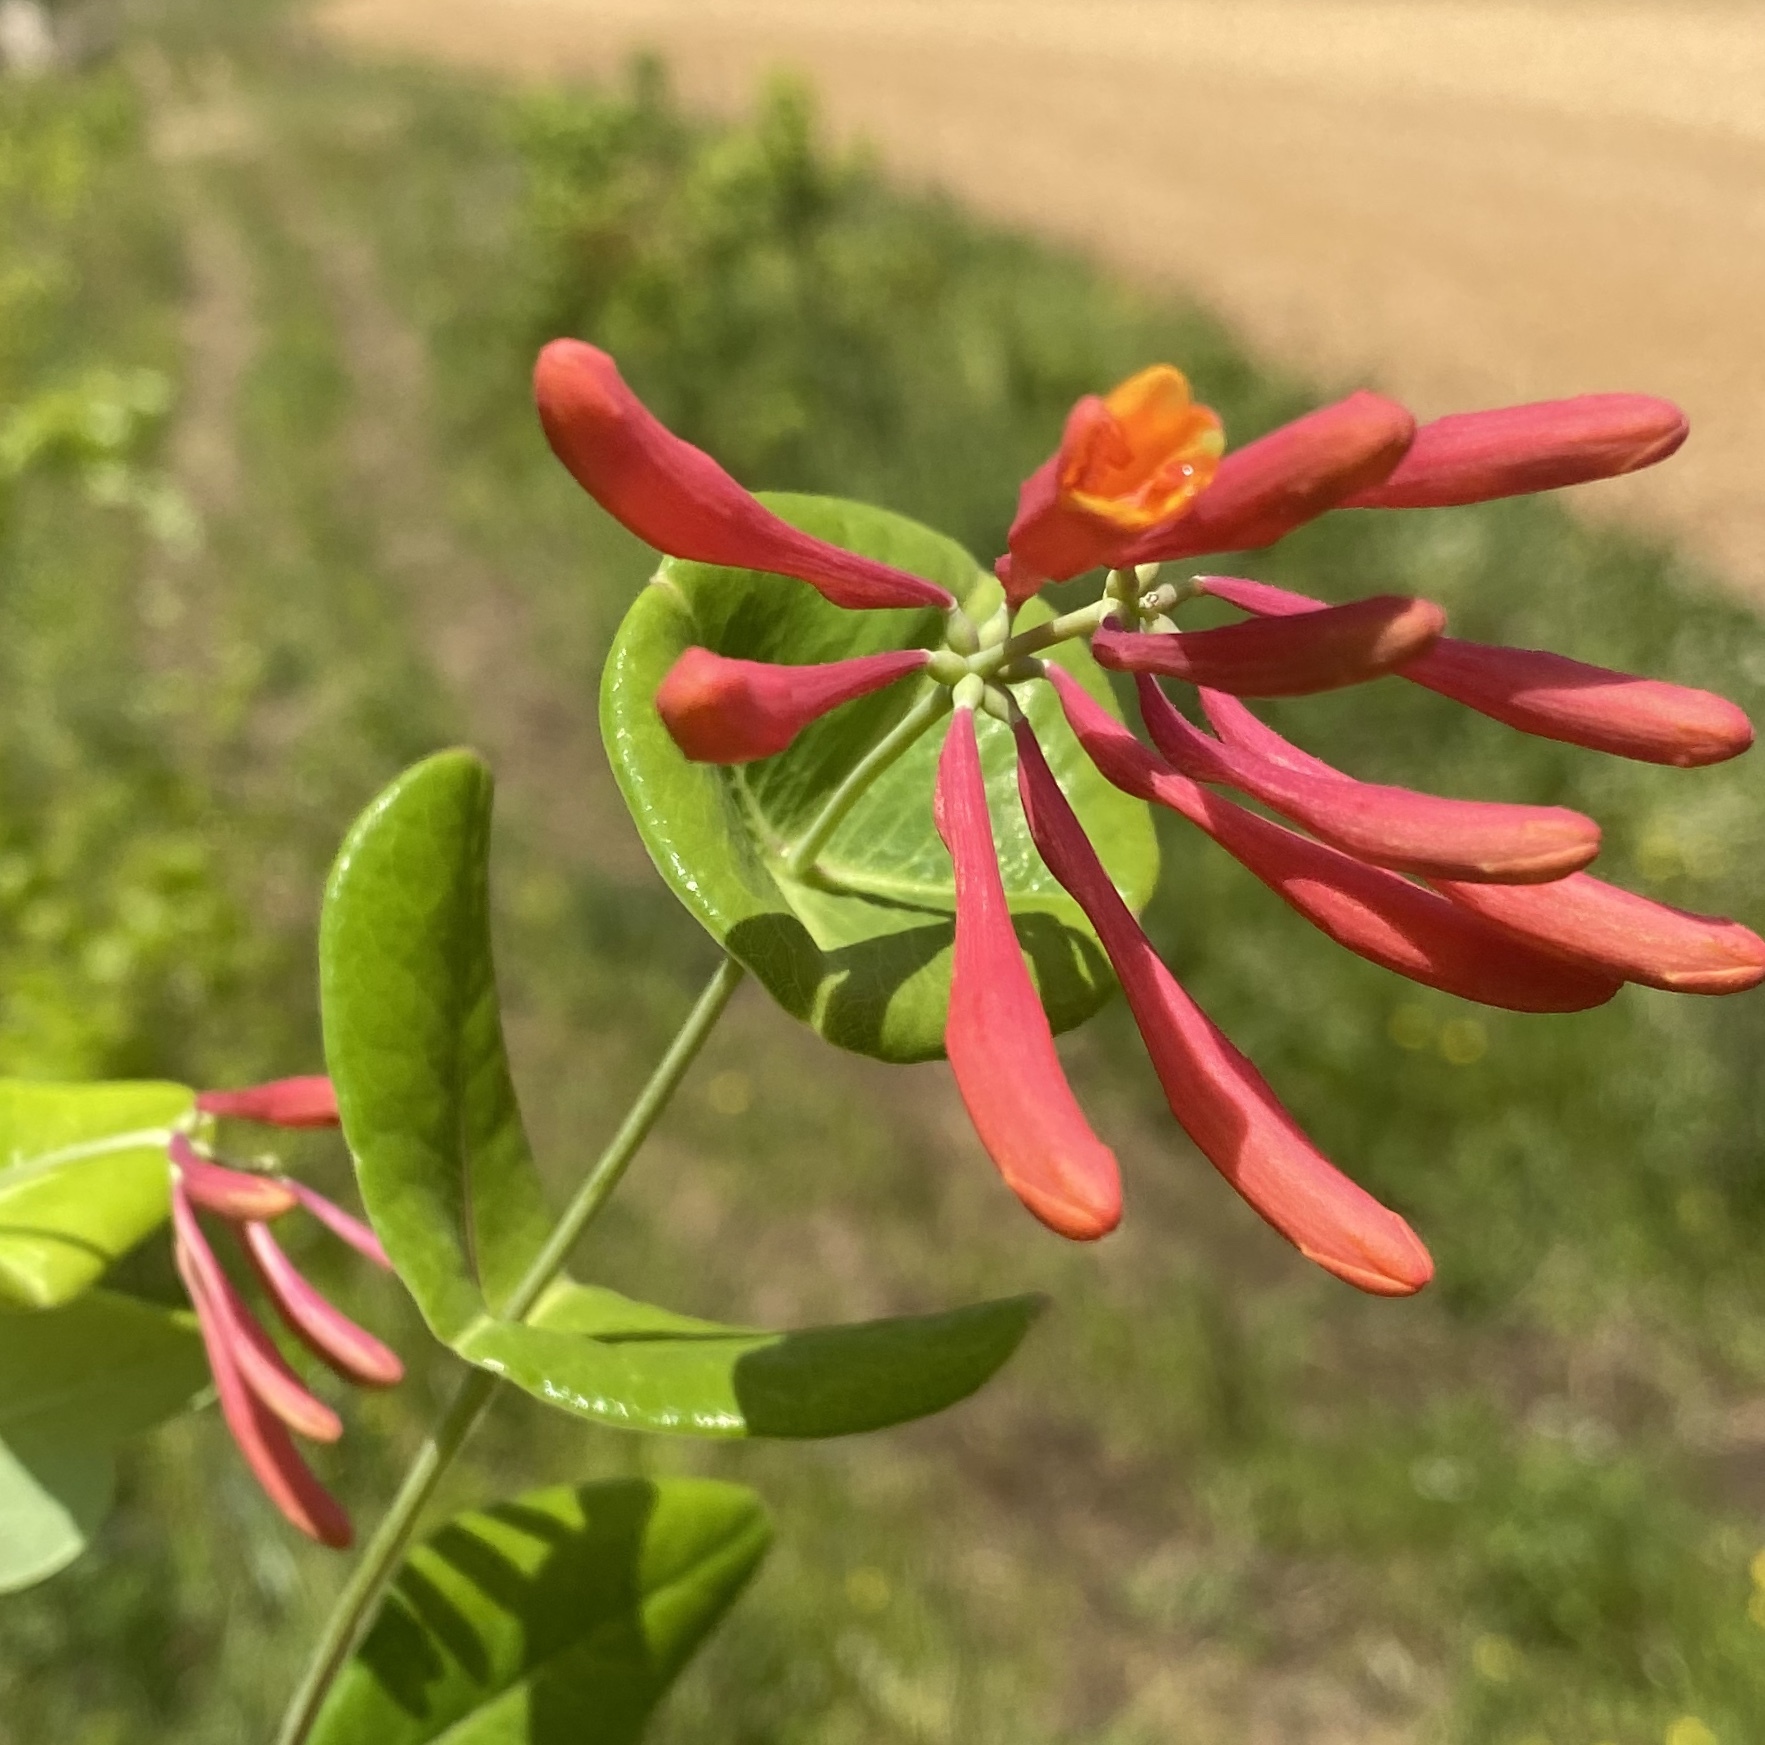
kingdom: Plantae
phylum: Tracheophyta
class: Magnoliopsida
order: Dipsacales
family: Caprifoliaceae
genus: Lonicera
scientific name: Lonicera sempervirens
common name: Coral honeysuckle
